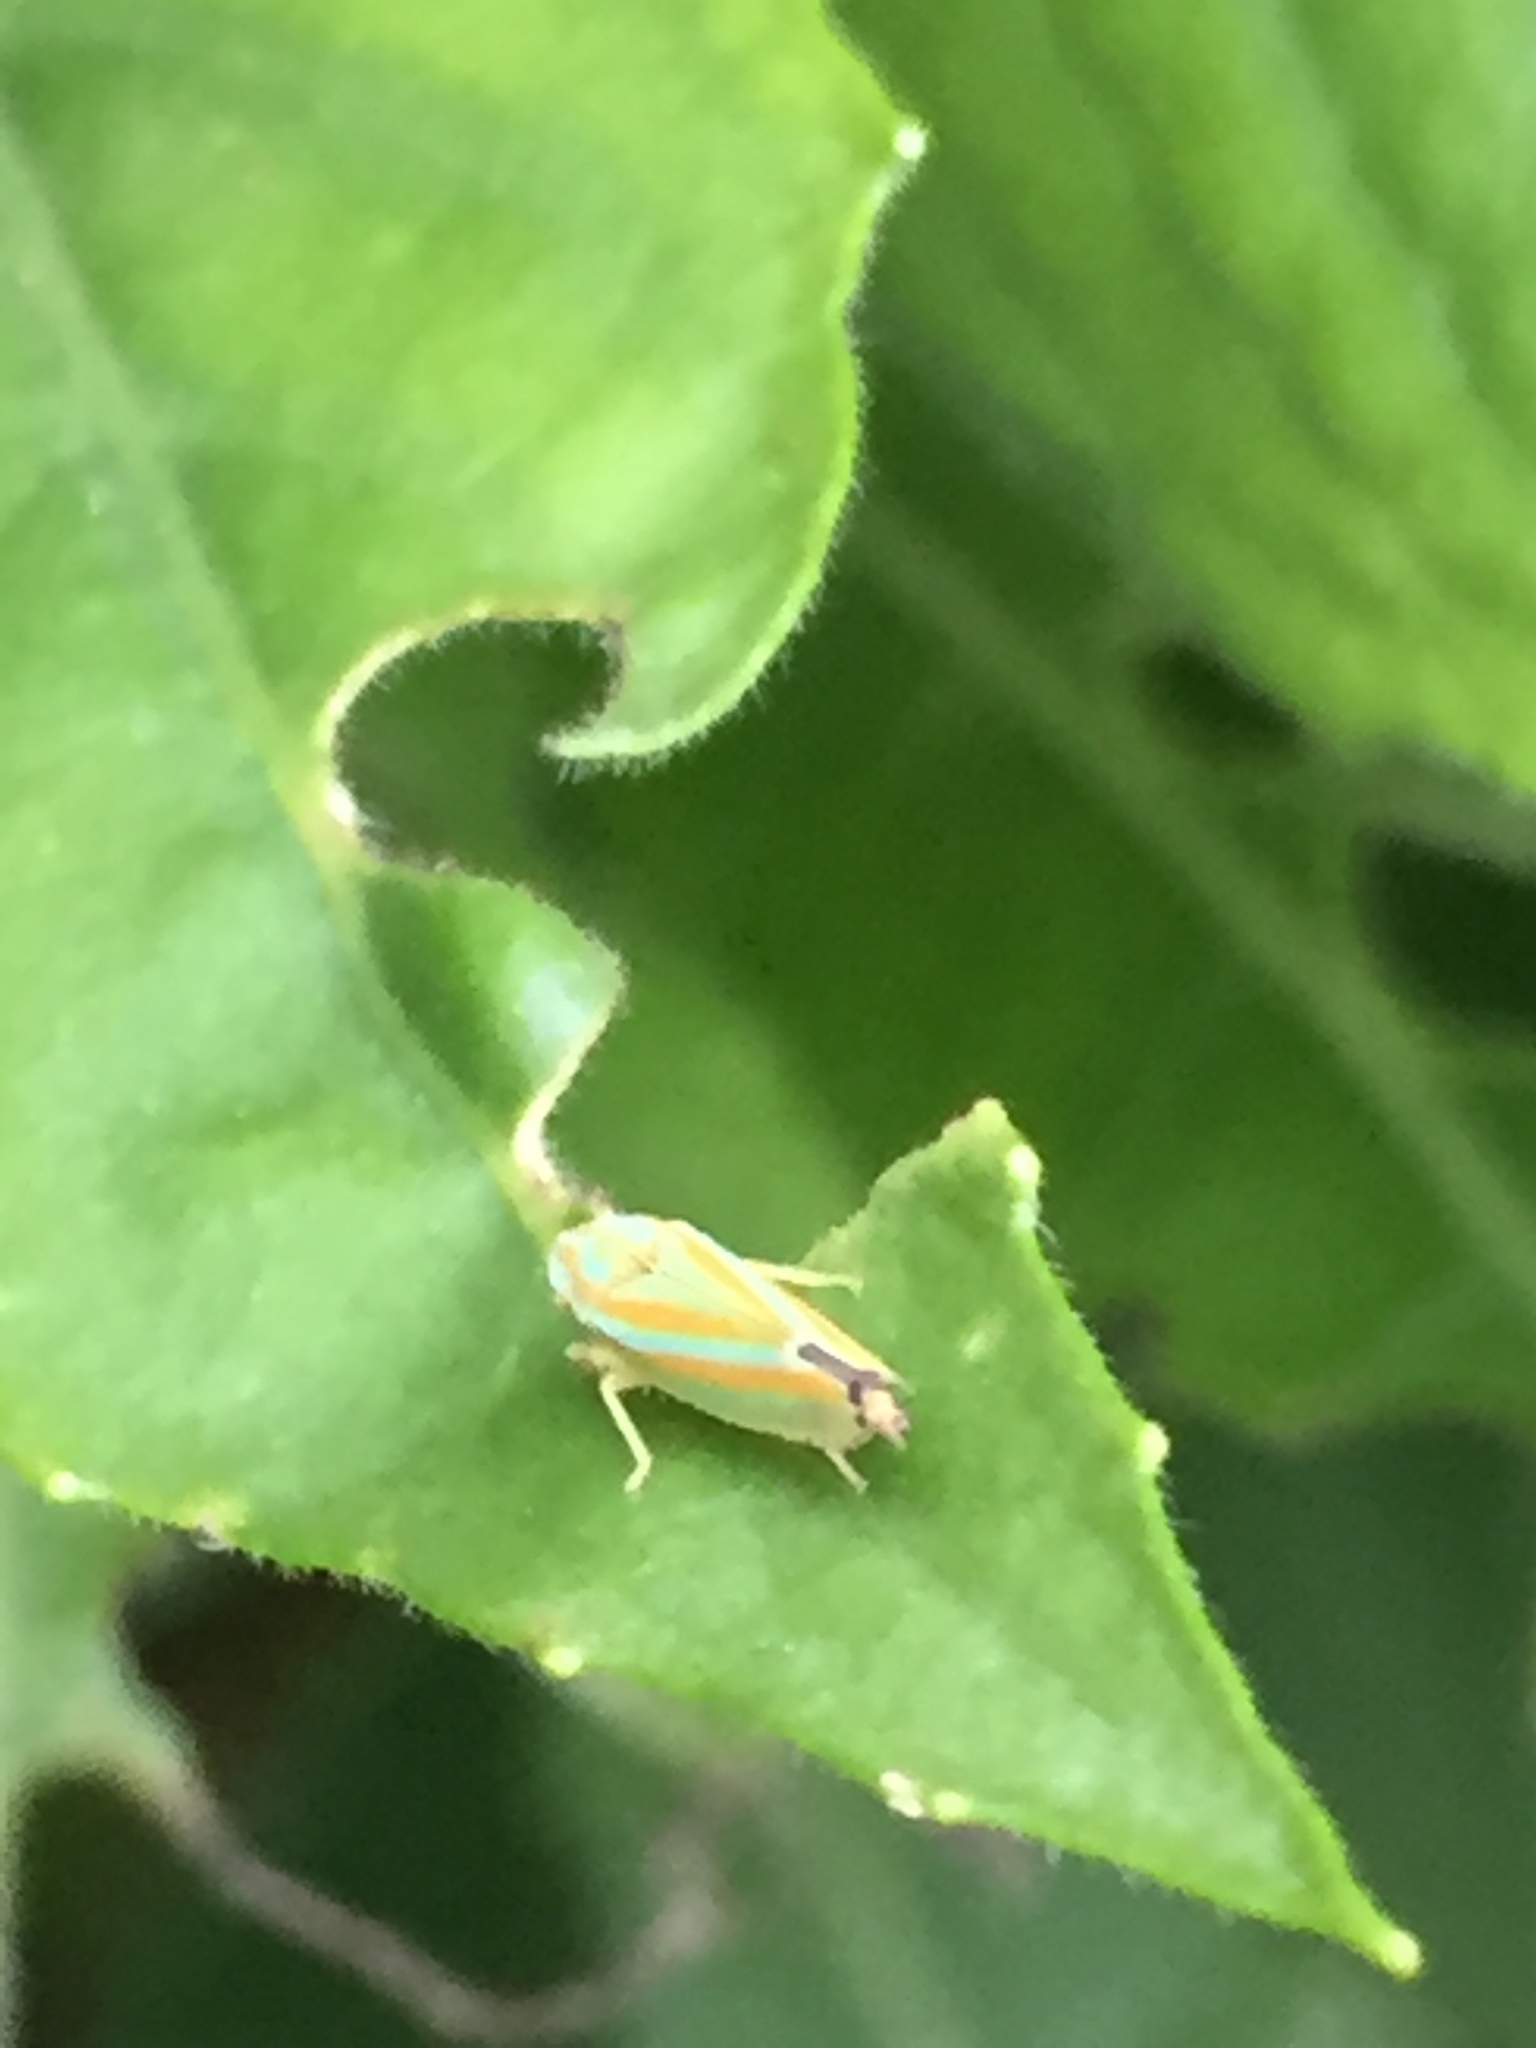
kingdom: Animalia
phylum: Arthropoda
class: Insecta
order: Hemiptera
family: Cicadellidae
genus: Graphocephala
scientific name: Graphocephala versuta
